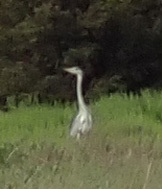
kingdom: Animalia
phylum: Chordata
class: Aves
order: Pelecaniformes
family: Ardeidae
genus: Ardea
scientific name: Ardea cinerea
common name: Grey heron
